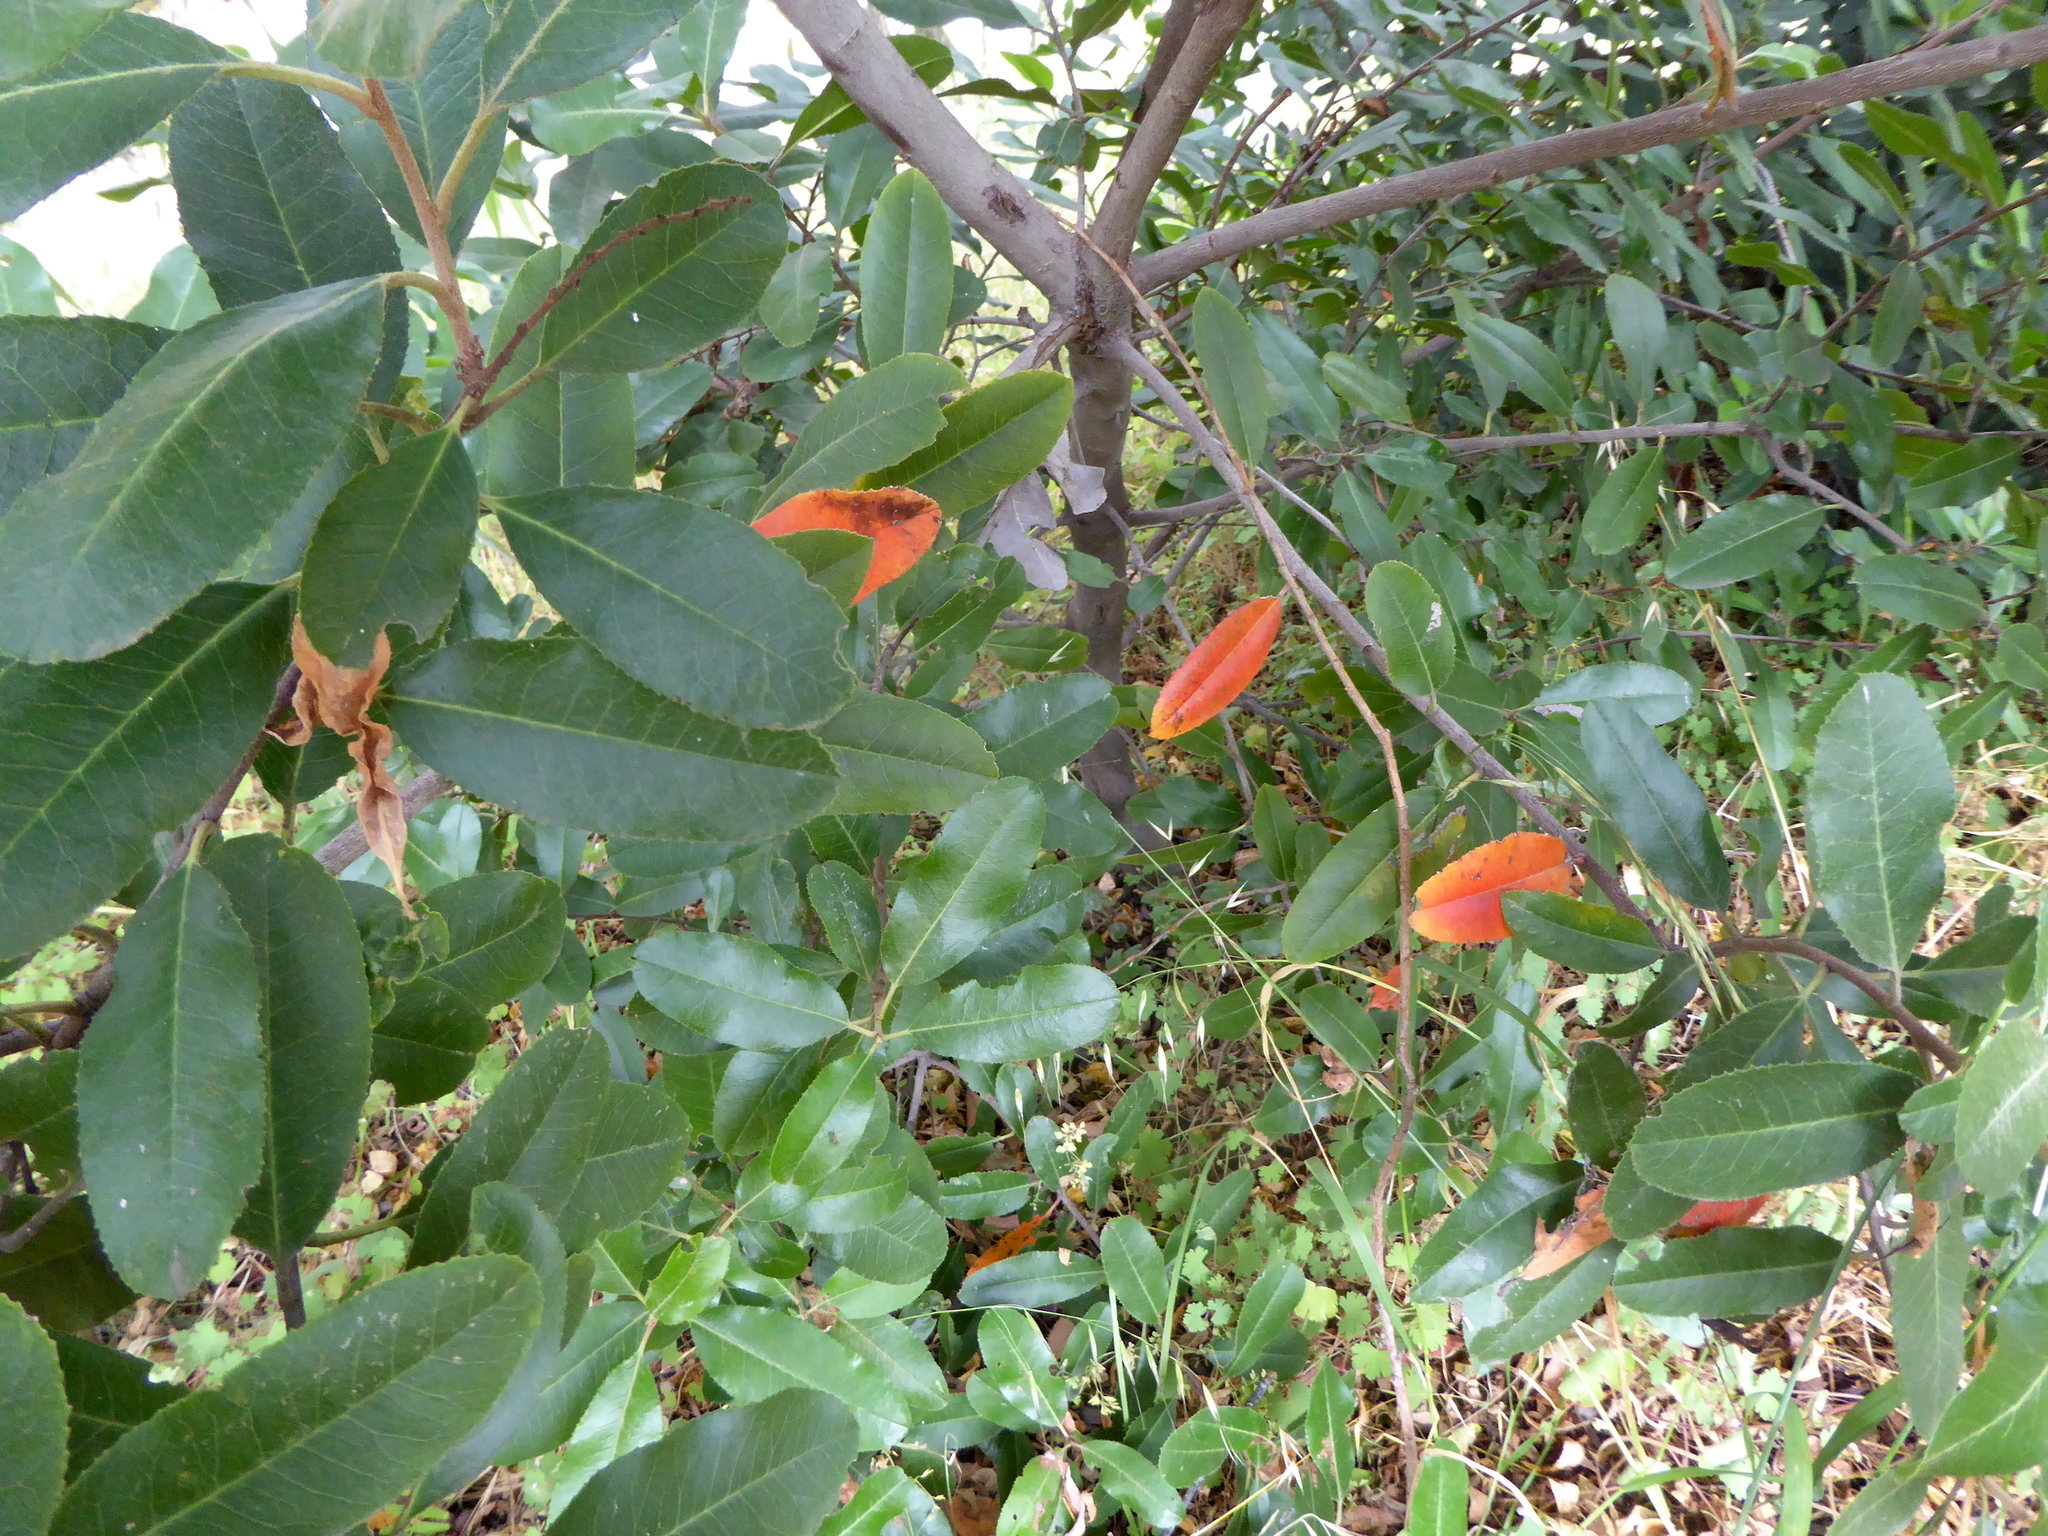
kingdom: Plantae
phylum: Tracheophyta
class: Magnoliopsida
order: Rosales
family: Rosaceae
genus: Heteromeles
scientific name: Heteromeles arbutifolia
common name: California-holly
